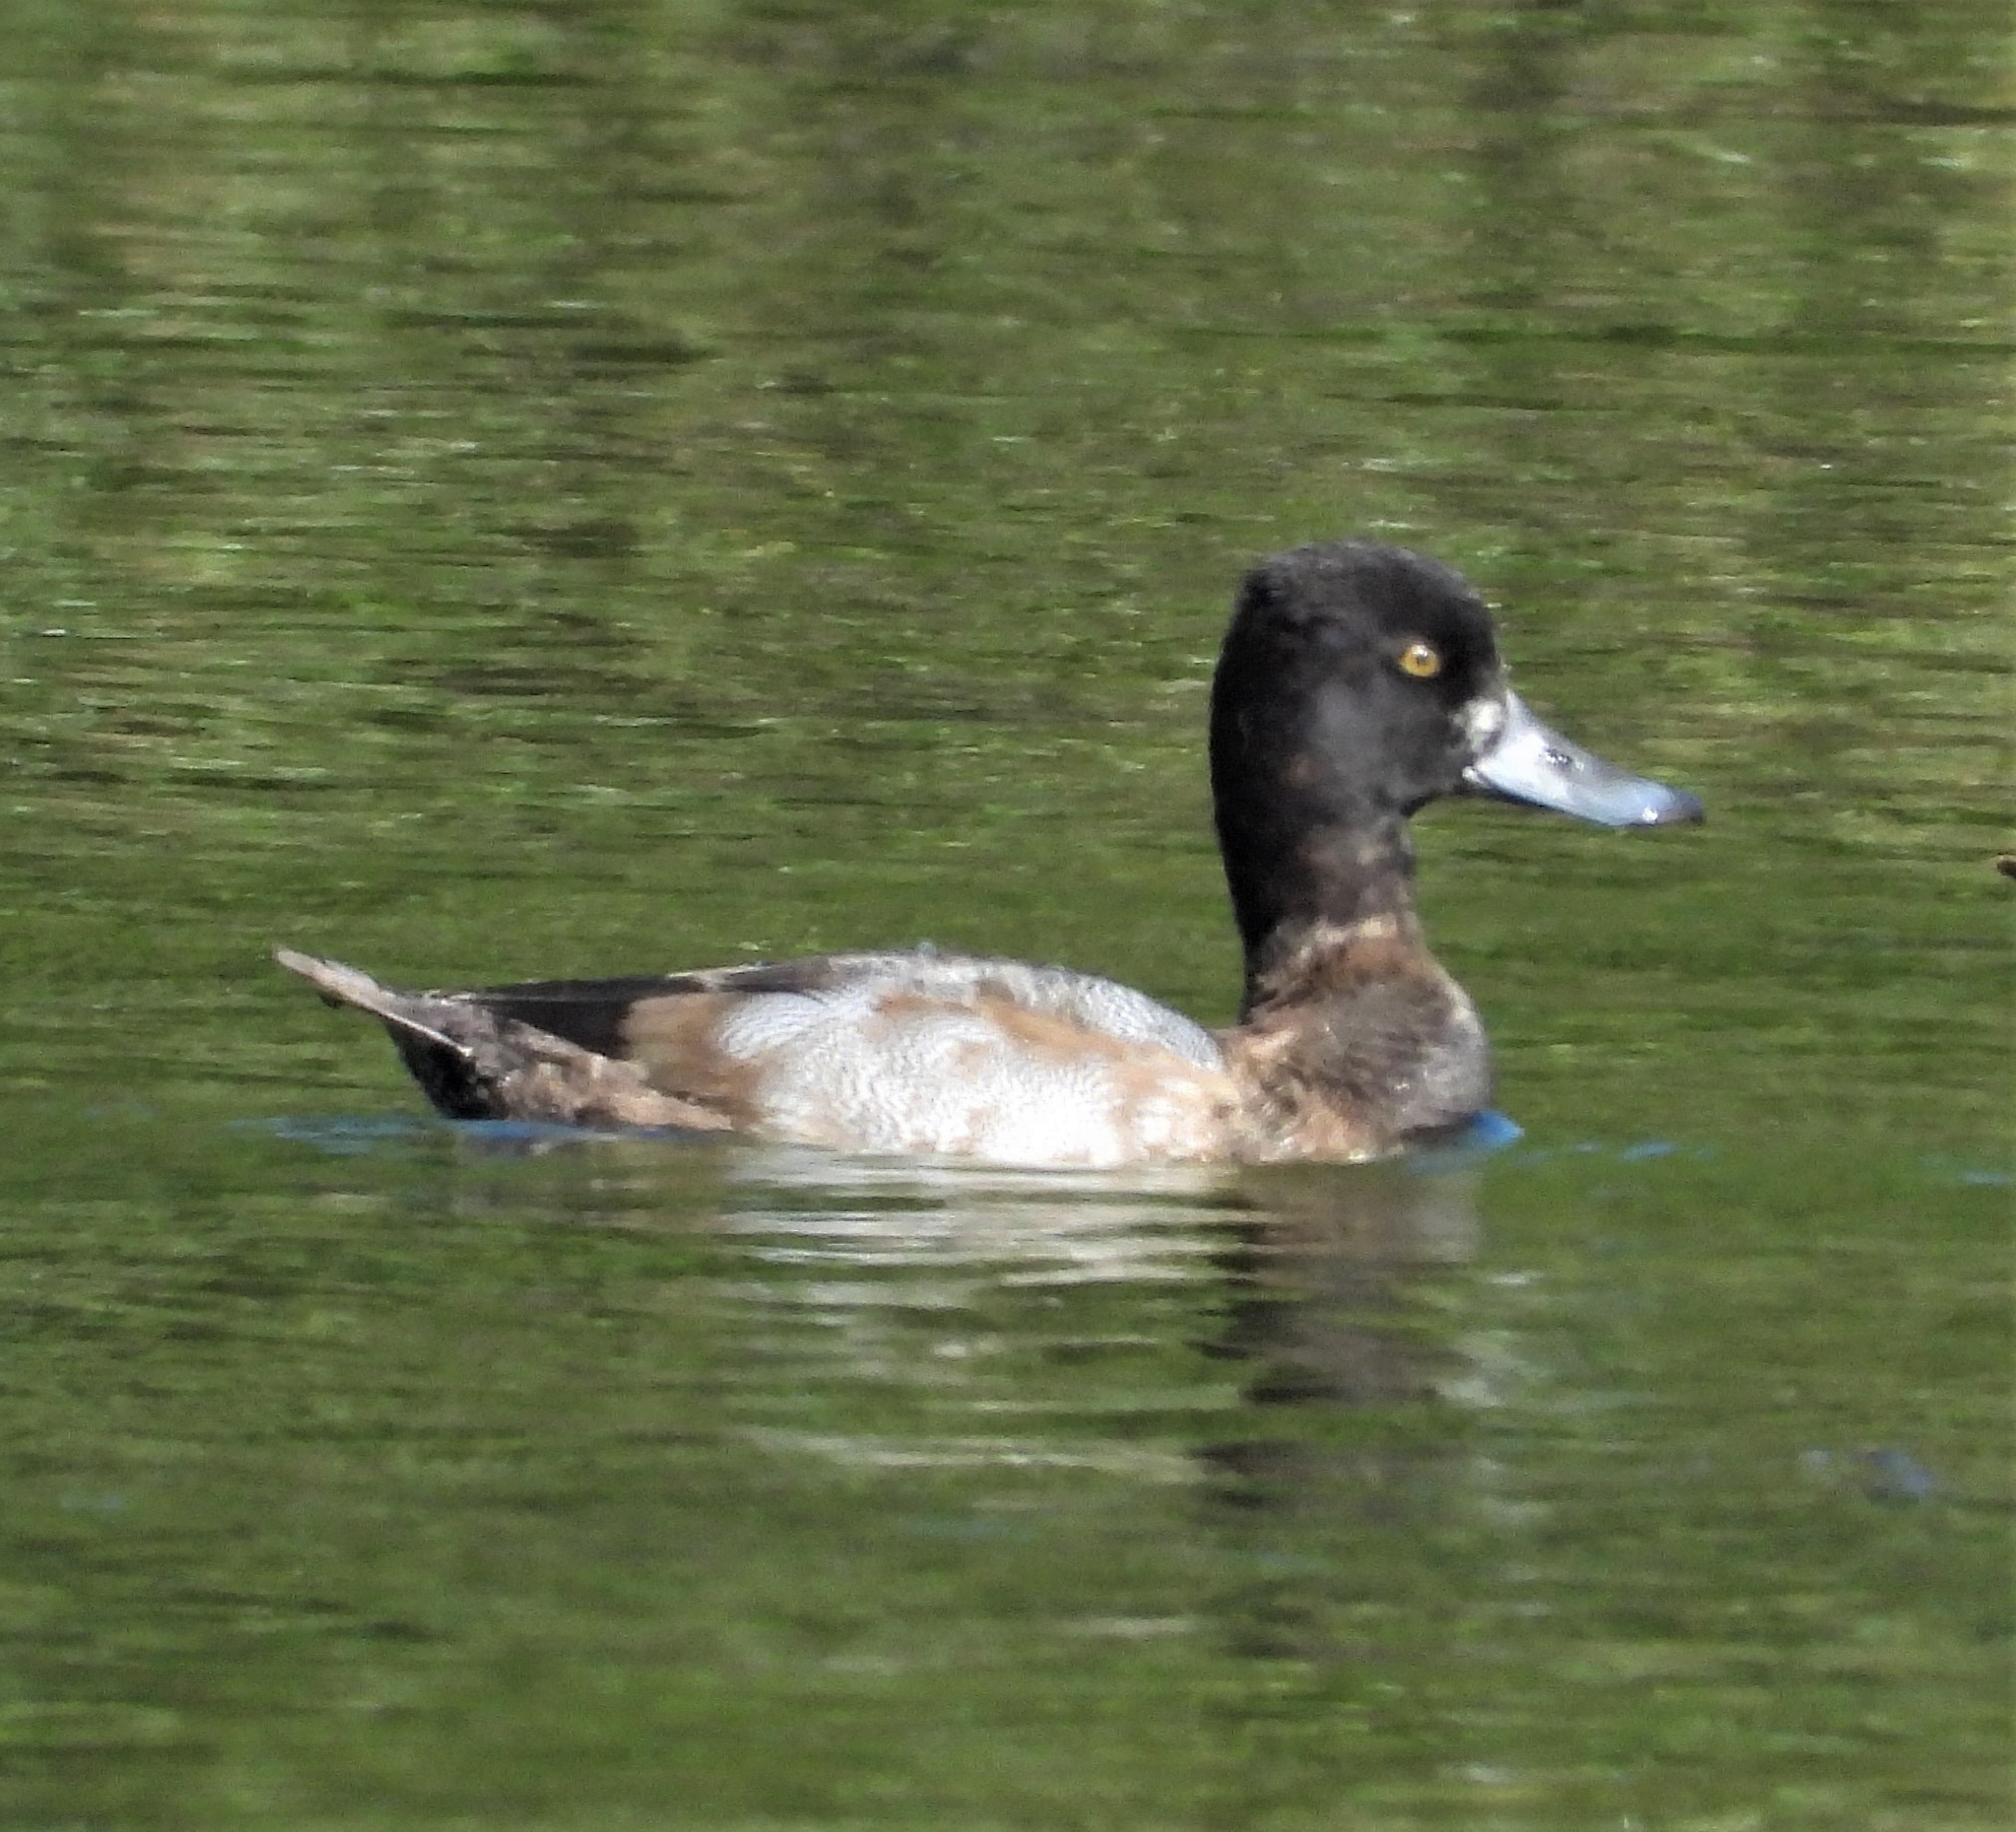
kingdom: Animalia
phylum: Chordata
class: Aves
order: Anseriformes
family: Anatidae
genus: Aythya
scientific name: Aythya affinis
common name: Lesser scaup
